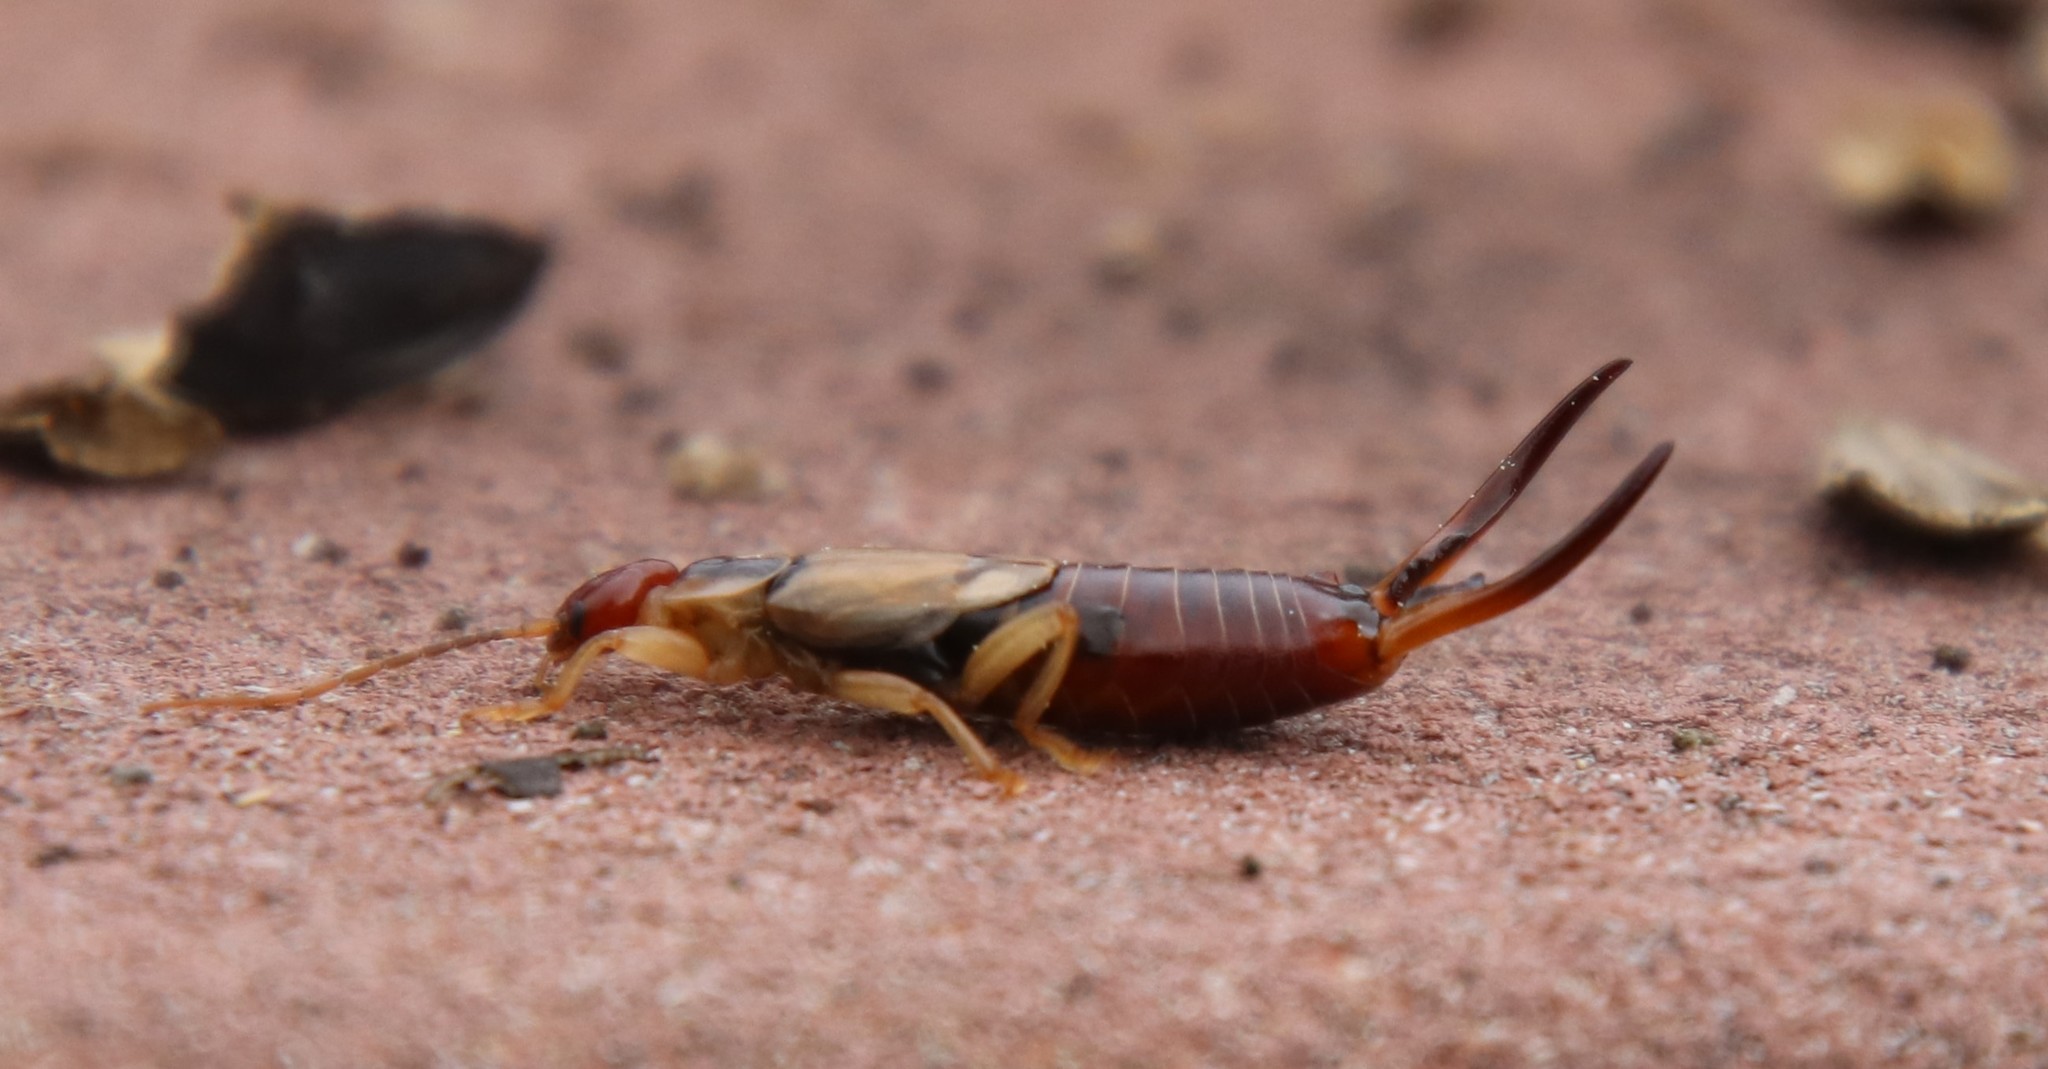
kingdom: Animalia
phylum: Arthropoda
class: Insecta
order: Dermaptera
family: Forficulidae
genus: Forficula
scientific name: Forficula
